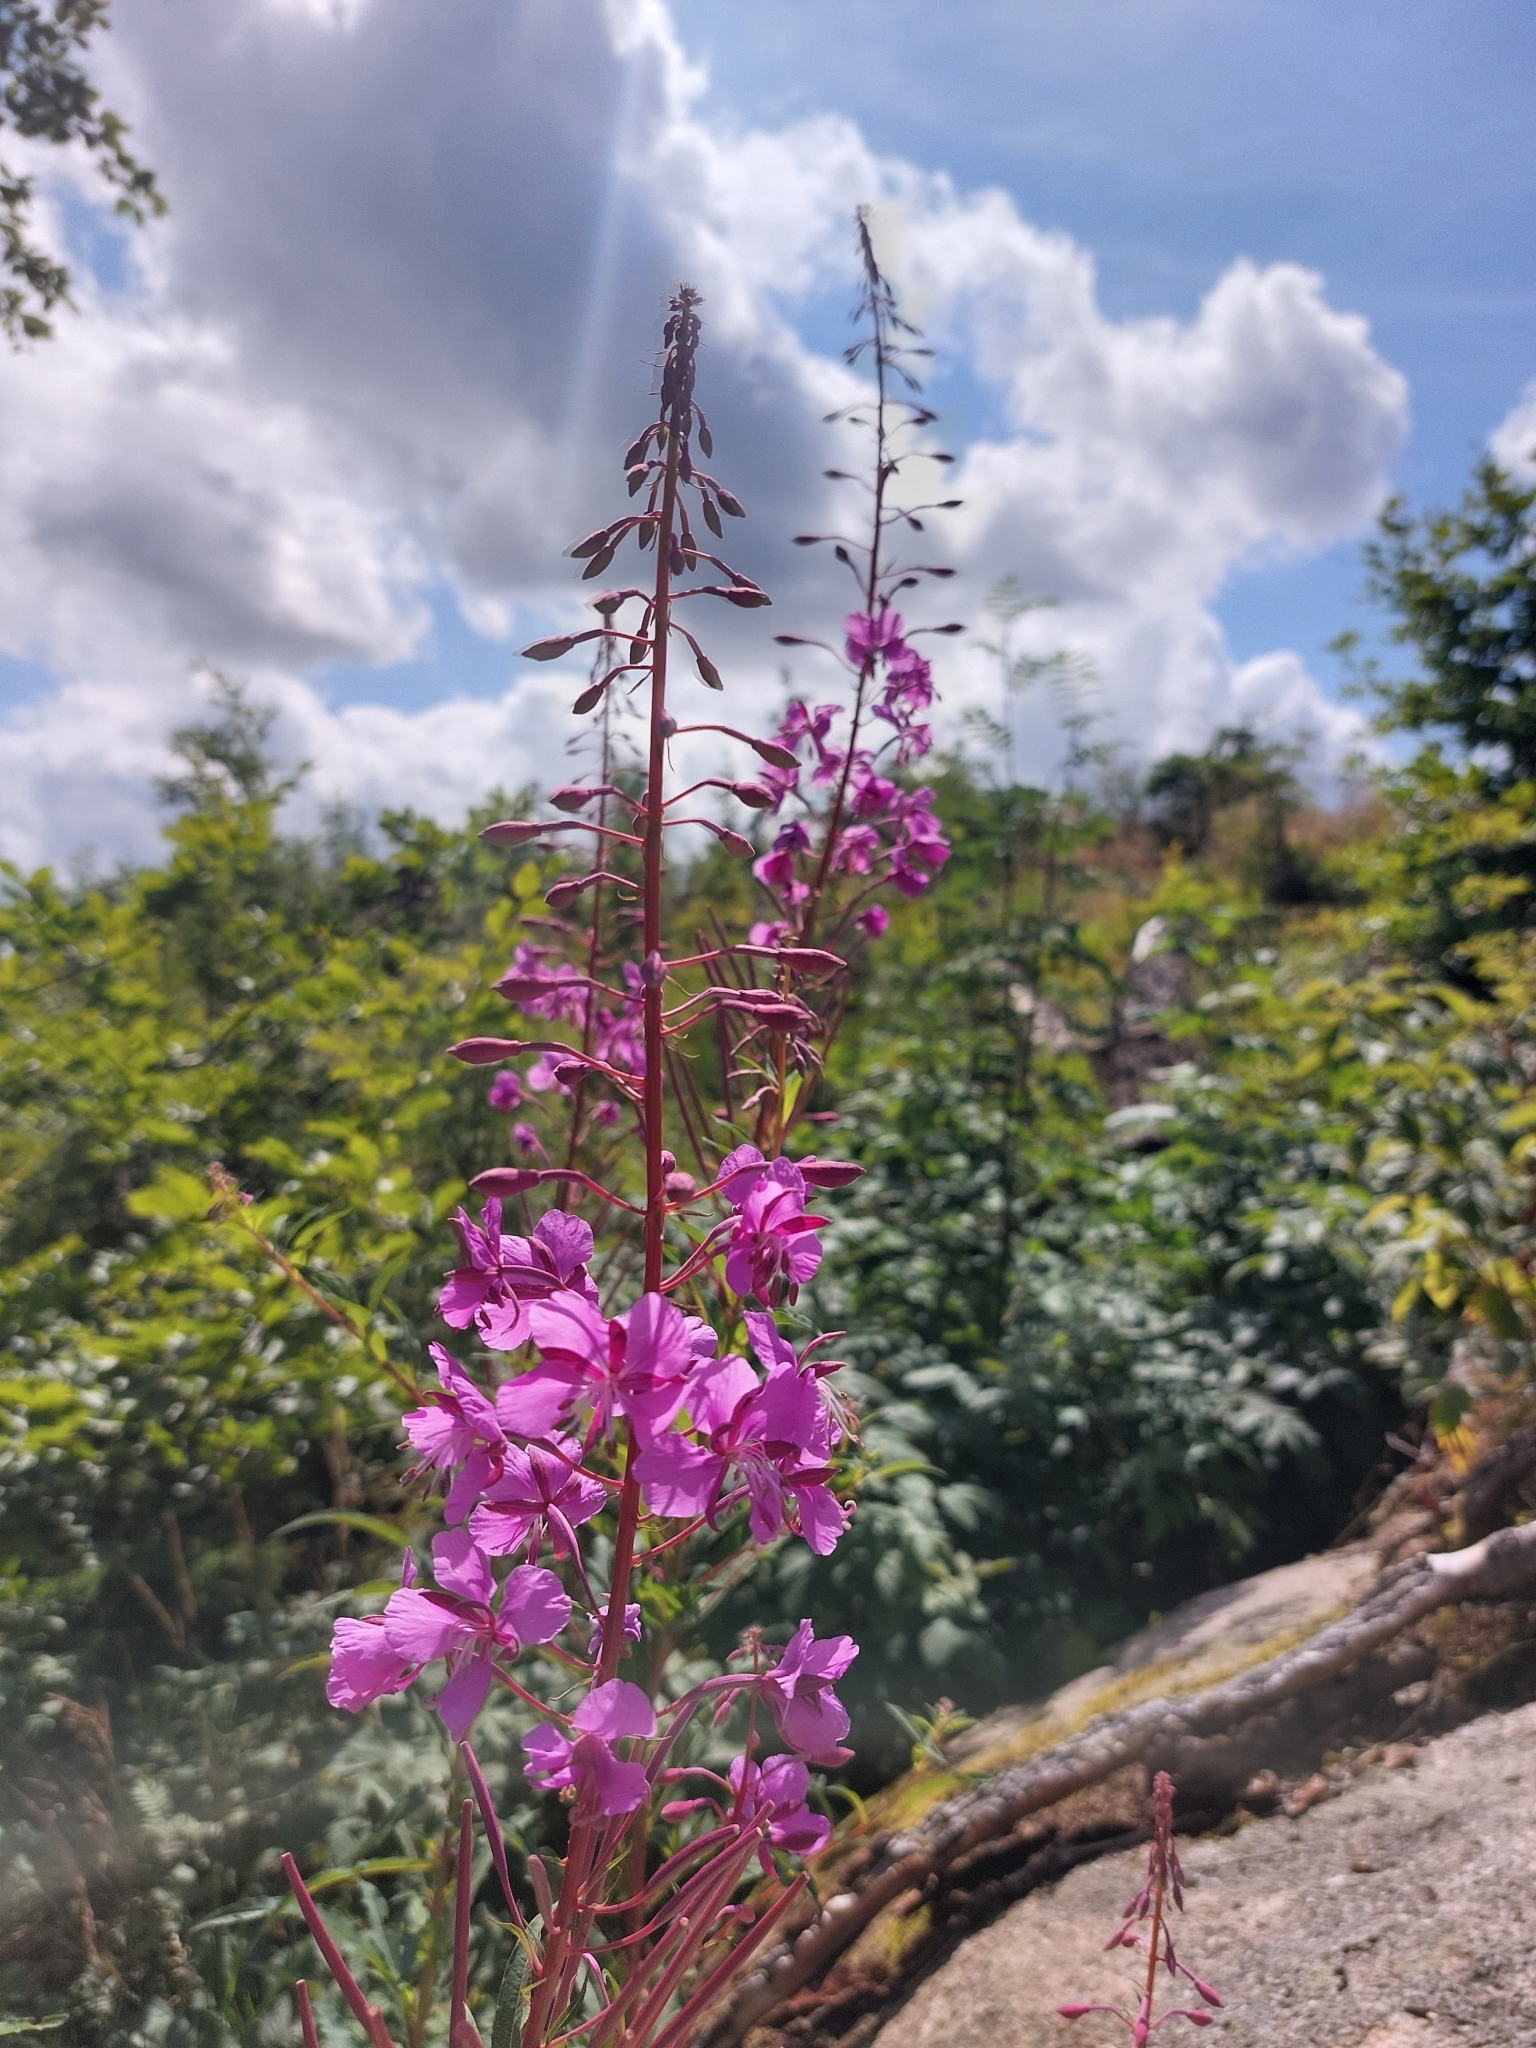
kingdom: Plantae
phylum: Tracheophyta
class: Magnoliopsida
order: Myrtales
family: Onagraceae
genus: Chamaenerion
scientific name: Chamaenerion angustifolium
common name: Fireweed
